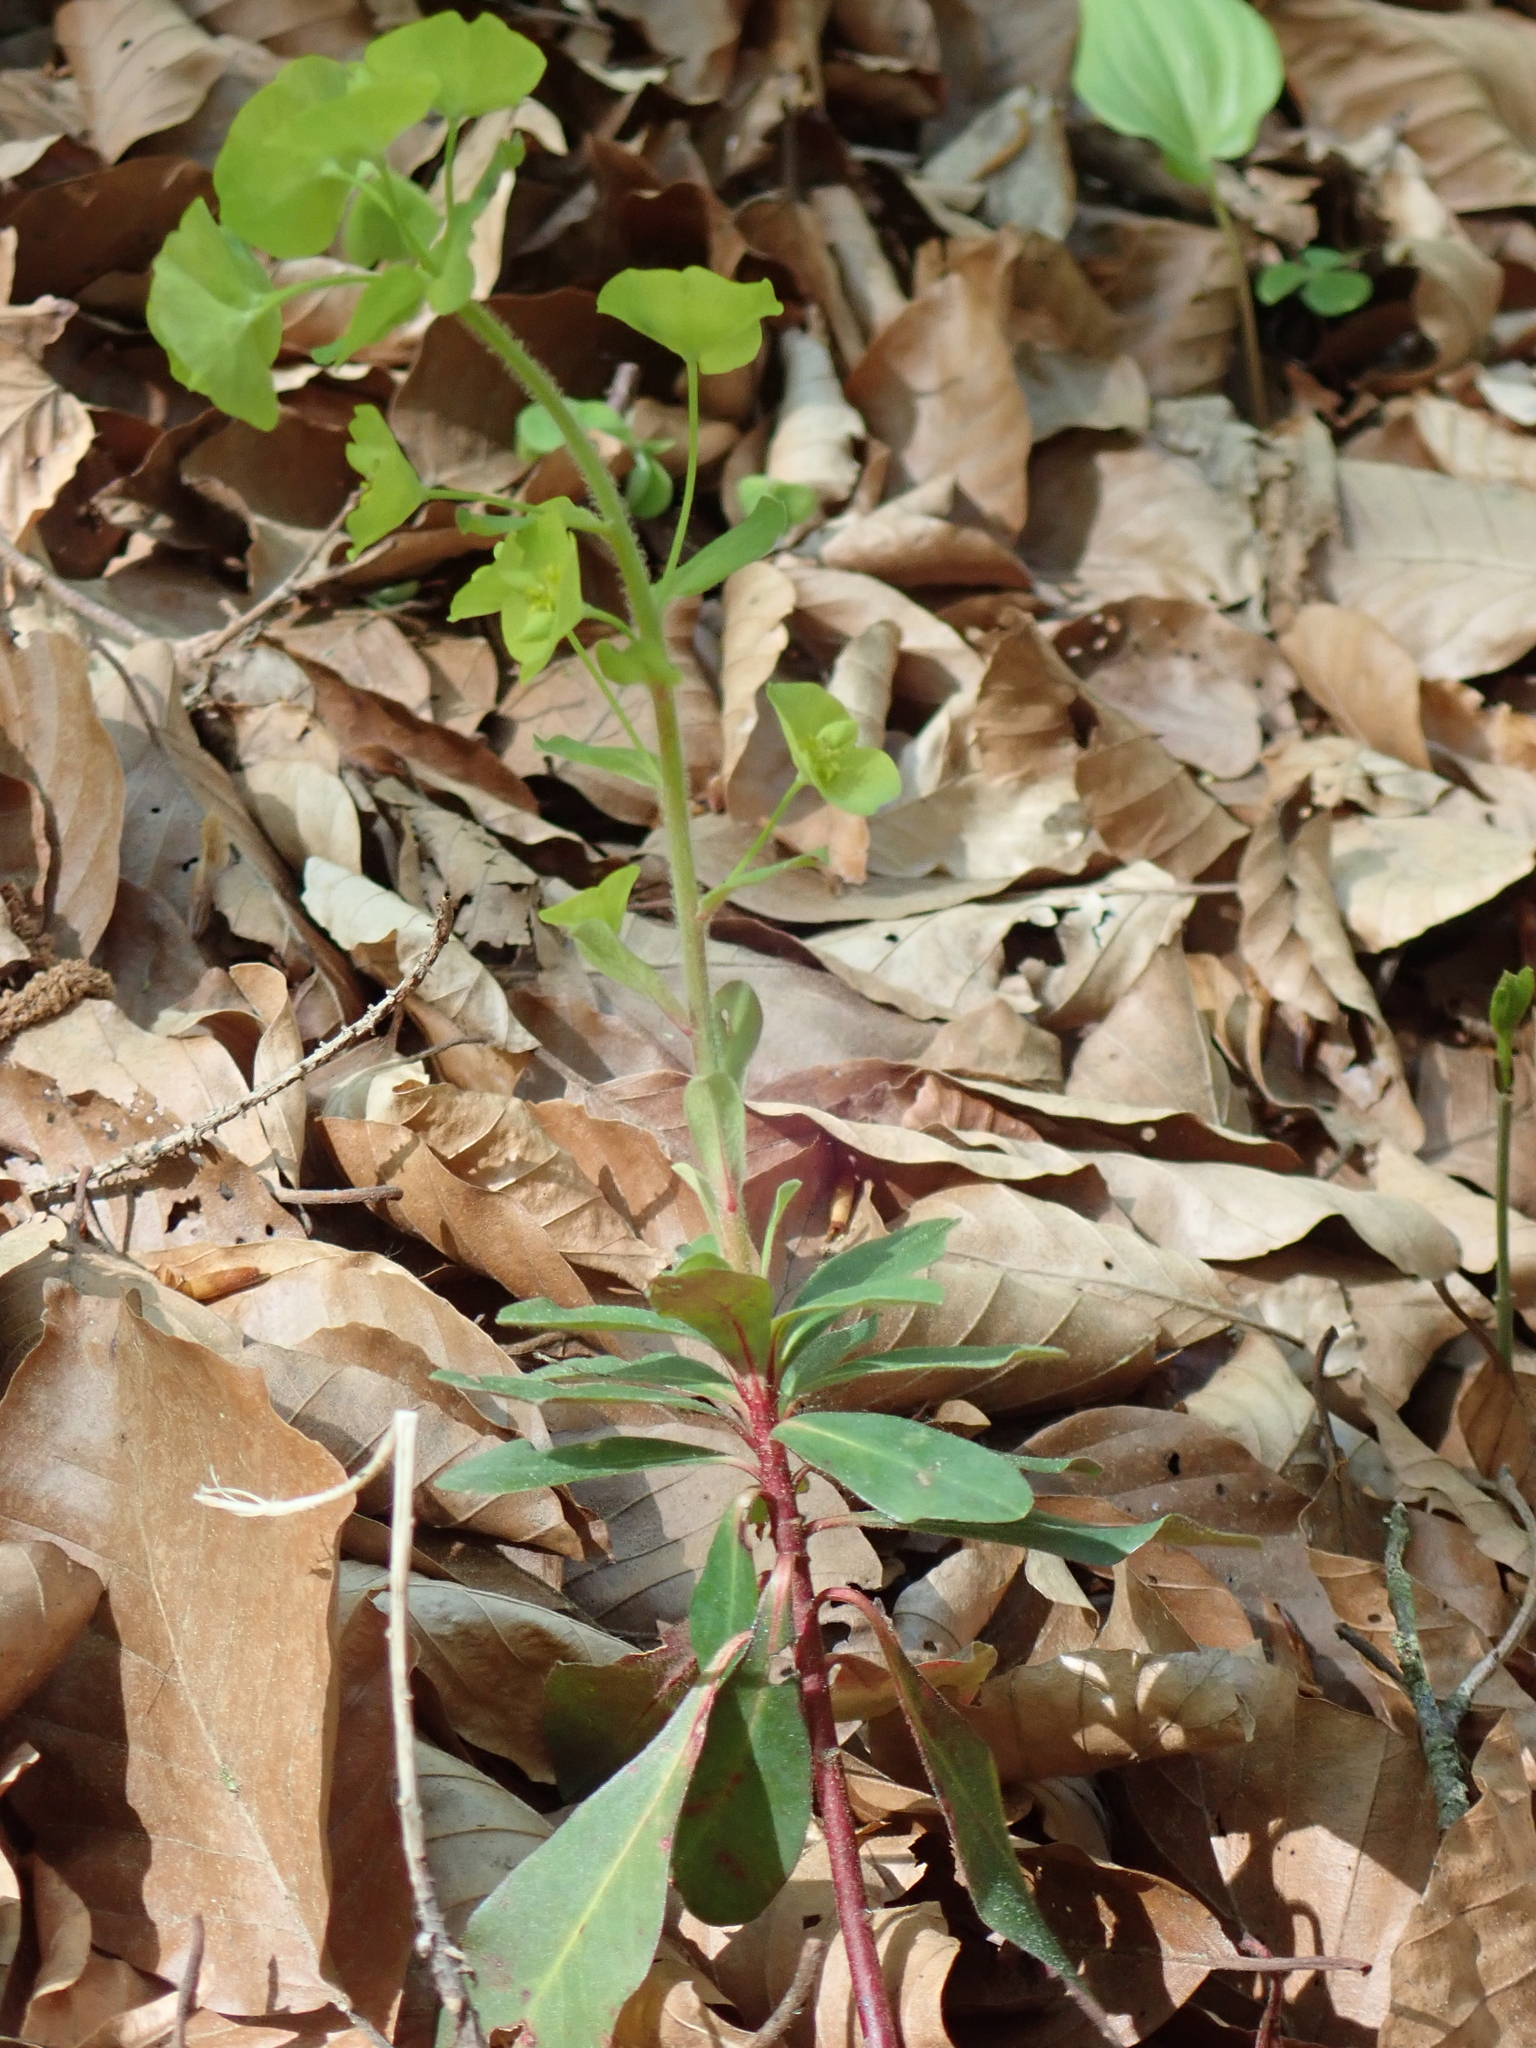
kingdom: Plantae
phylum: Tracheophyta
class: Magnoliopsida
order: Malpighiales
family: Euphorbiaceae
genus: Euphorbia
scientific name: Euphorbia amygdaloides
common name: Wood spurge
